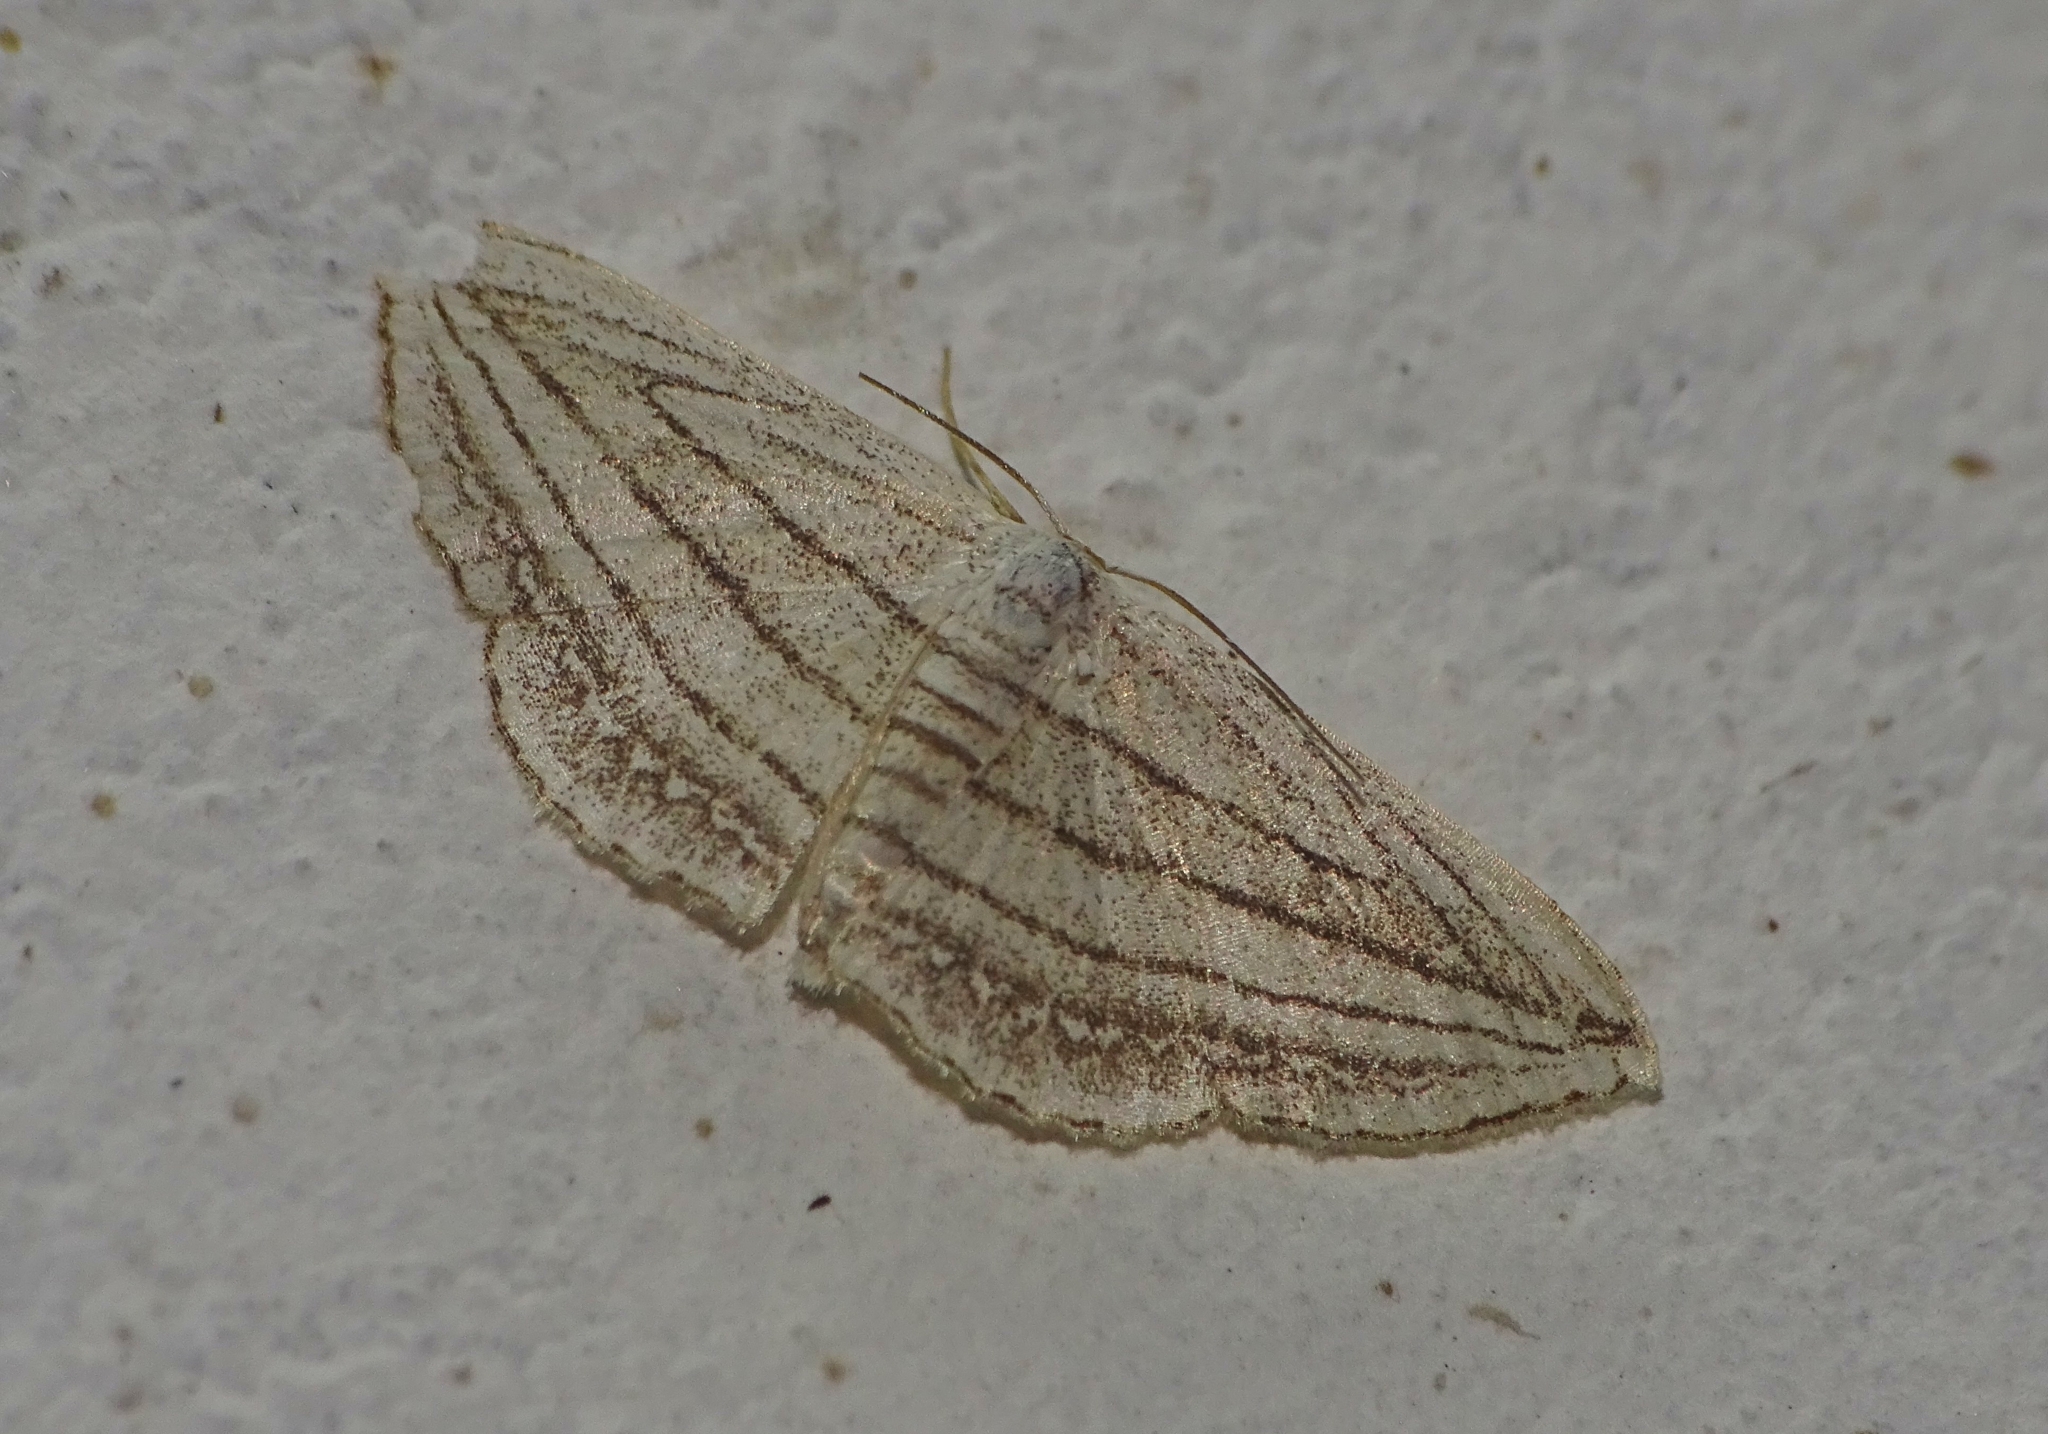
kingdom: Animalia
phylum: Arthropoda
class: Insecta
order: Lepidoptera
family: Geometridae
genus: Scopula
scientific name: Scopula opicata
